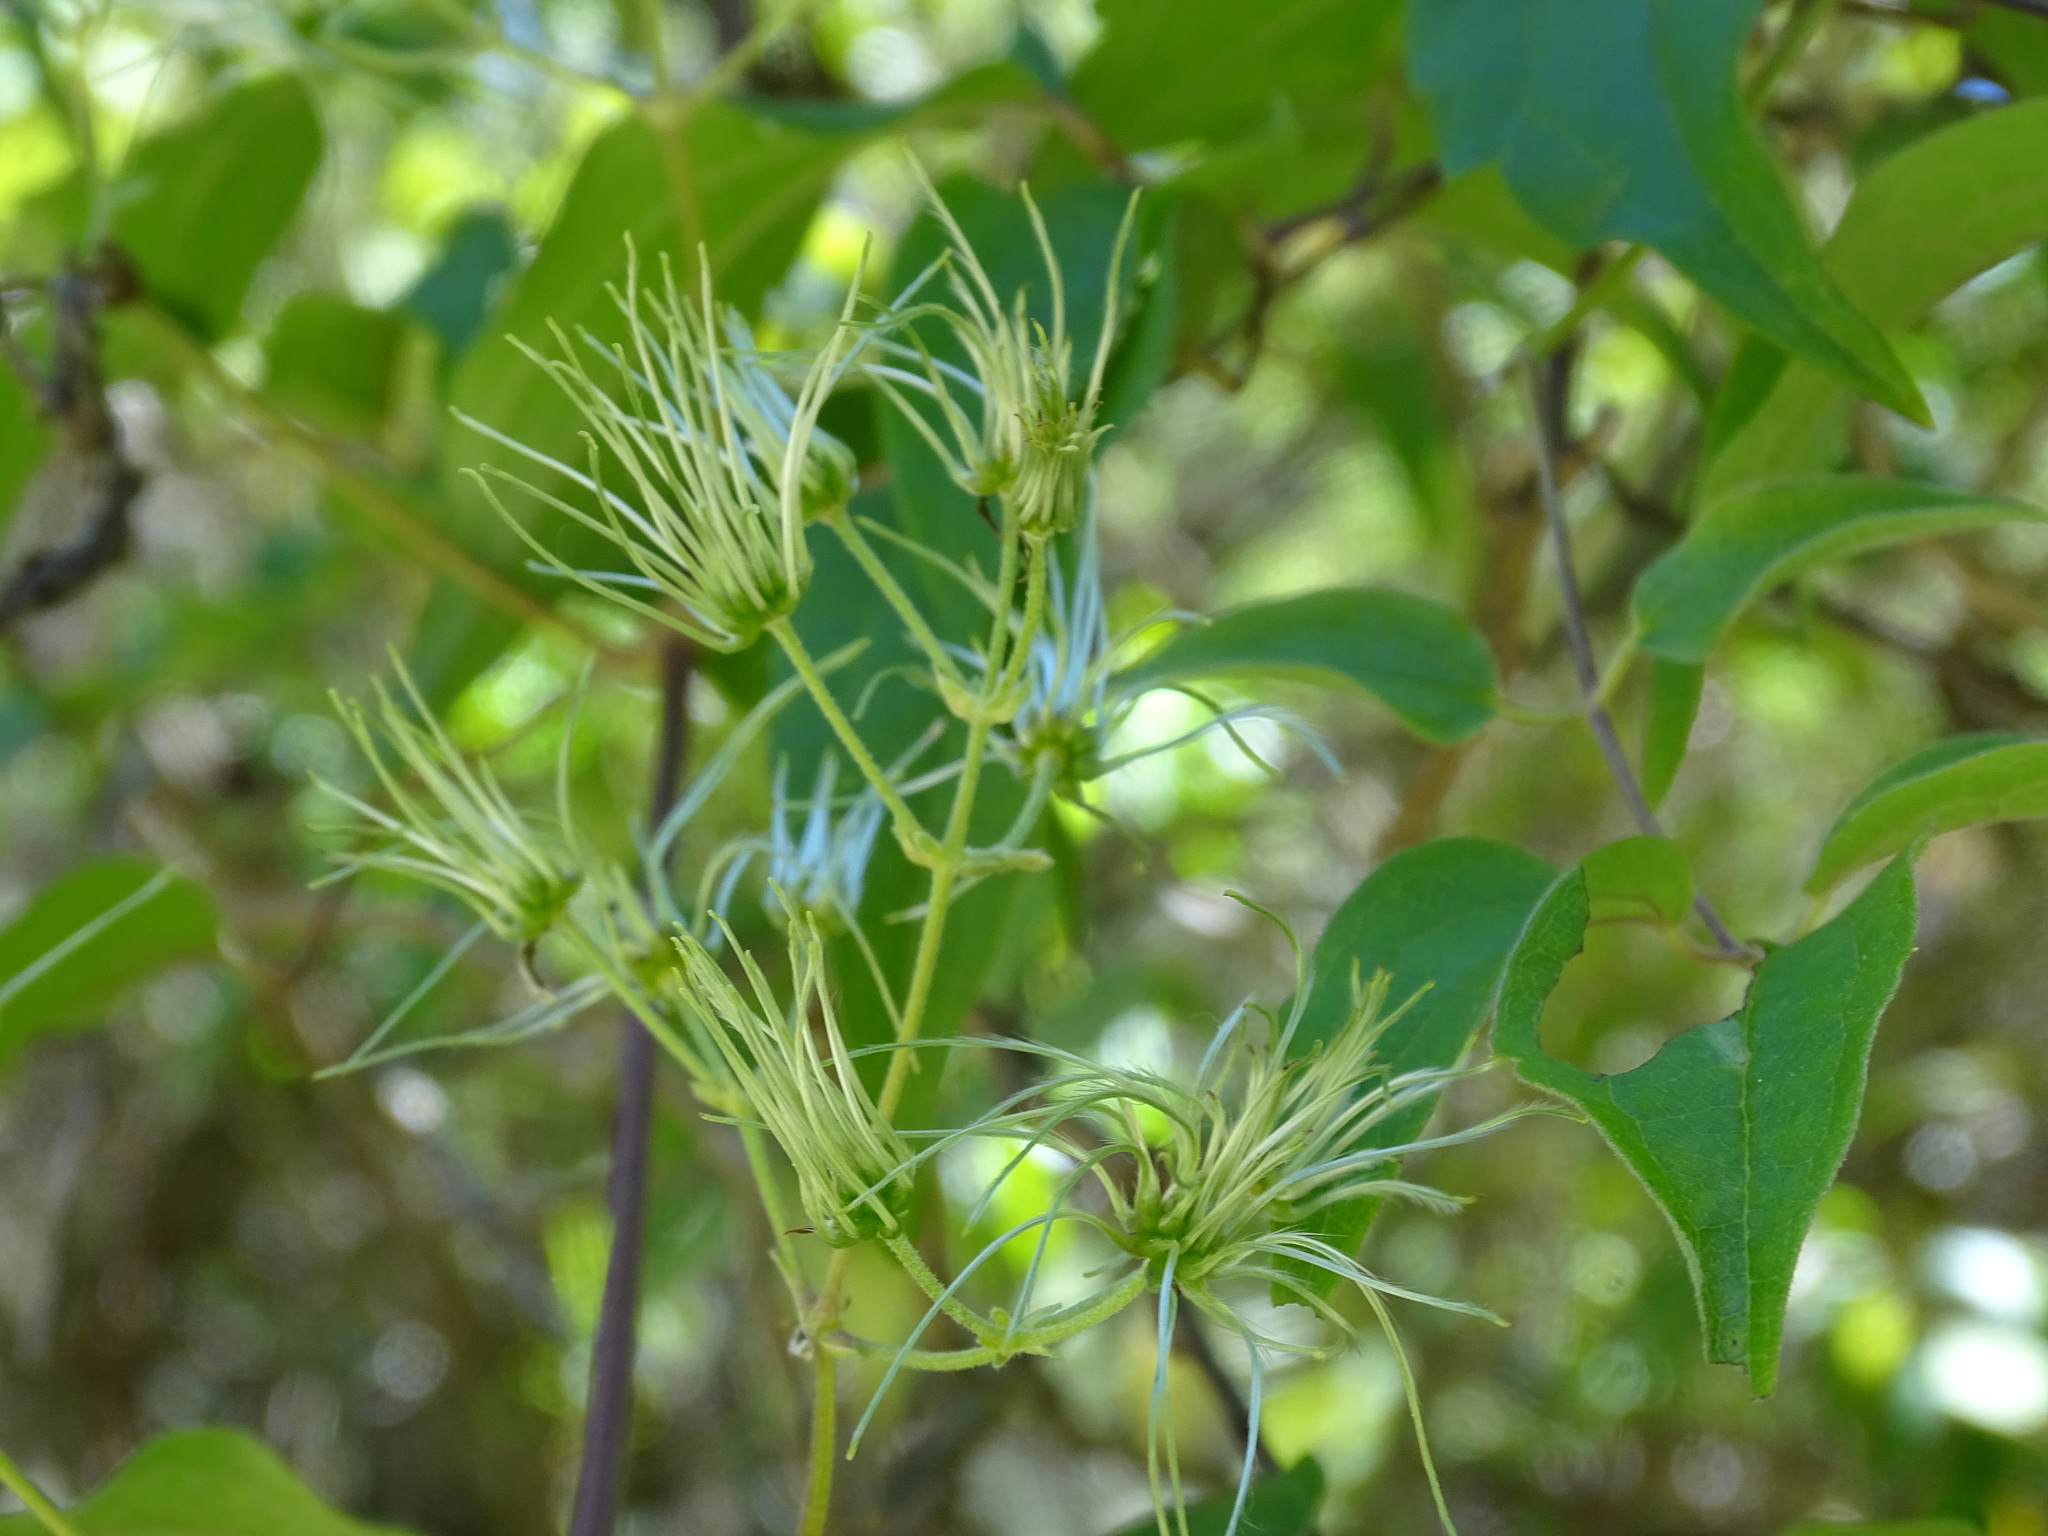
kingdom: Plantae
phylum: Tracheophyta
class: Magnoliopsida
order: Ranunculales
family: Ranunculaceae
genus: Clematis
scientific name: Clematis dioica
